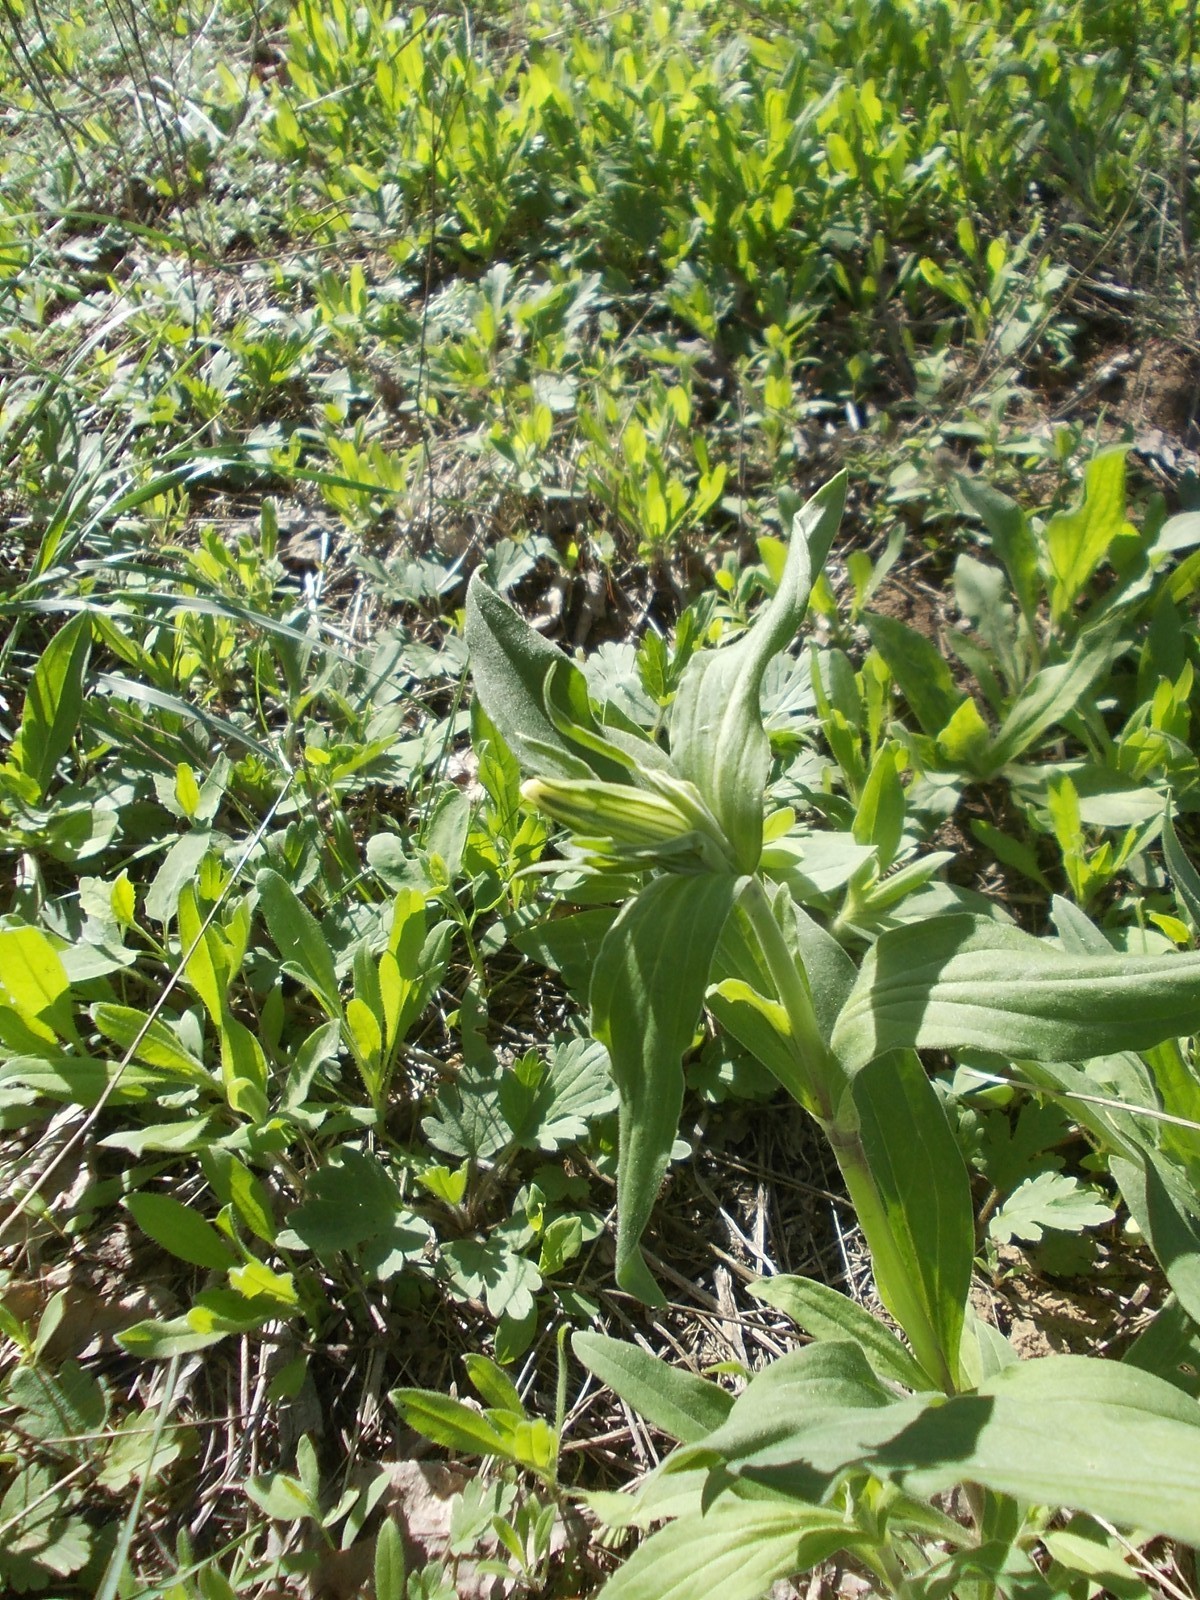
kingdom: Plantae
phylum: Tracheophyta
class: Magnoliopsida
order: Caryophyllales
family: Caryophyllaceae
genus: Silene
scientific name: Silene latifolia
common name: White campion
